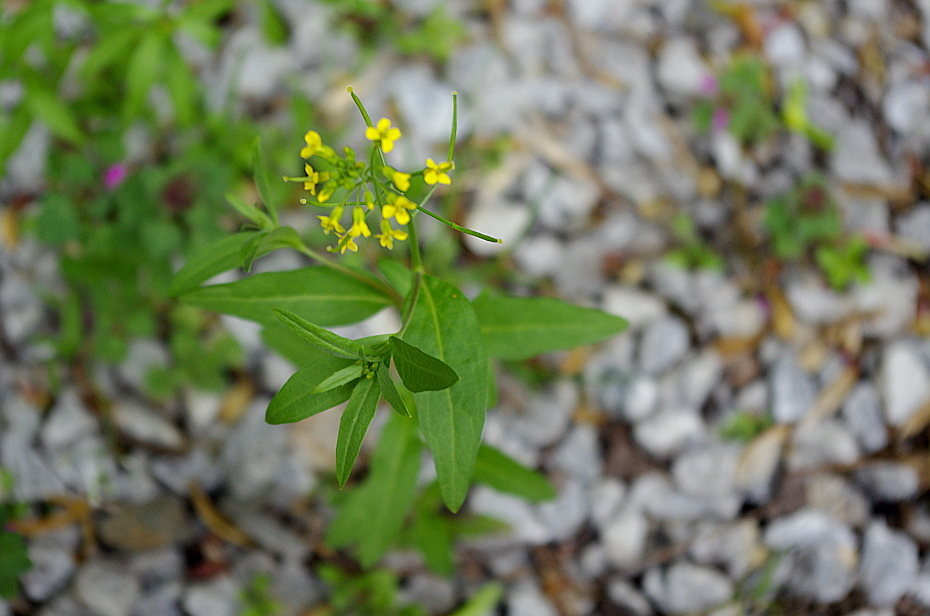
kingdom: Plantae
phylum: Tracheophyta
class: Magnoliopsida
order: Brassicales
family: Brassicaceae
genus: Erysimum
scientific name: Erysimum cheiranthoides
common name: Treacle mustard
